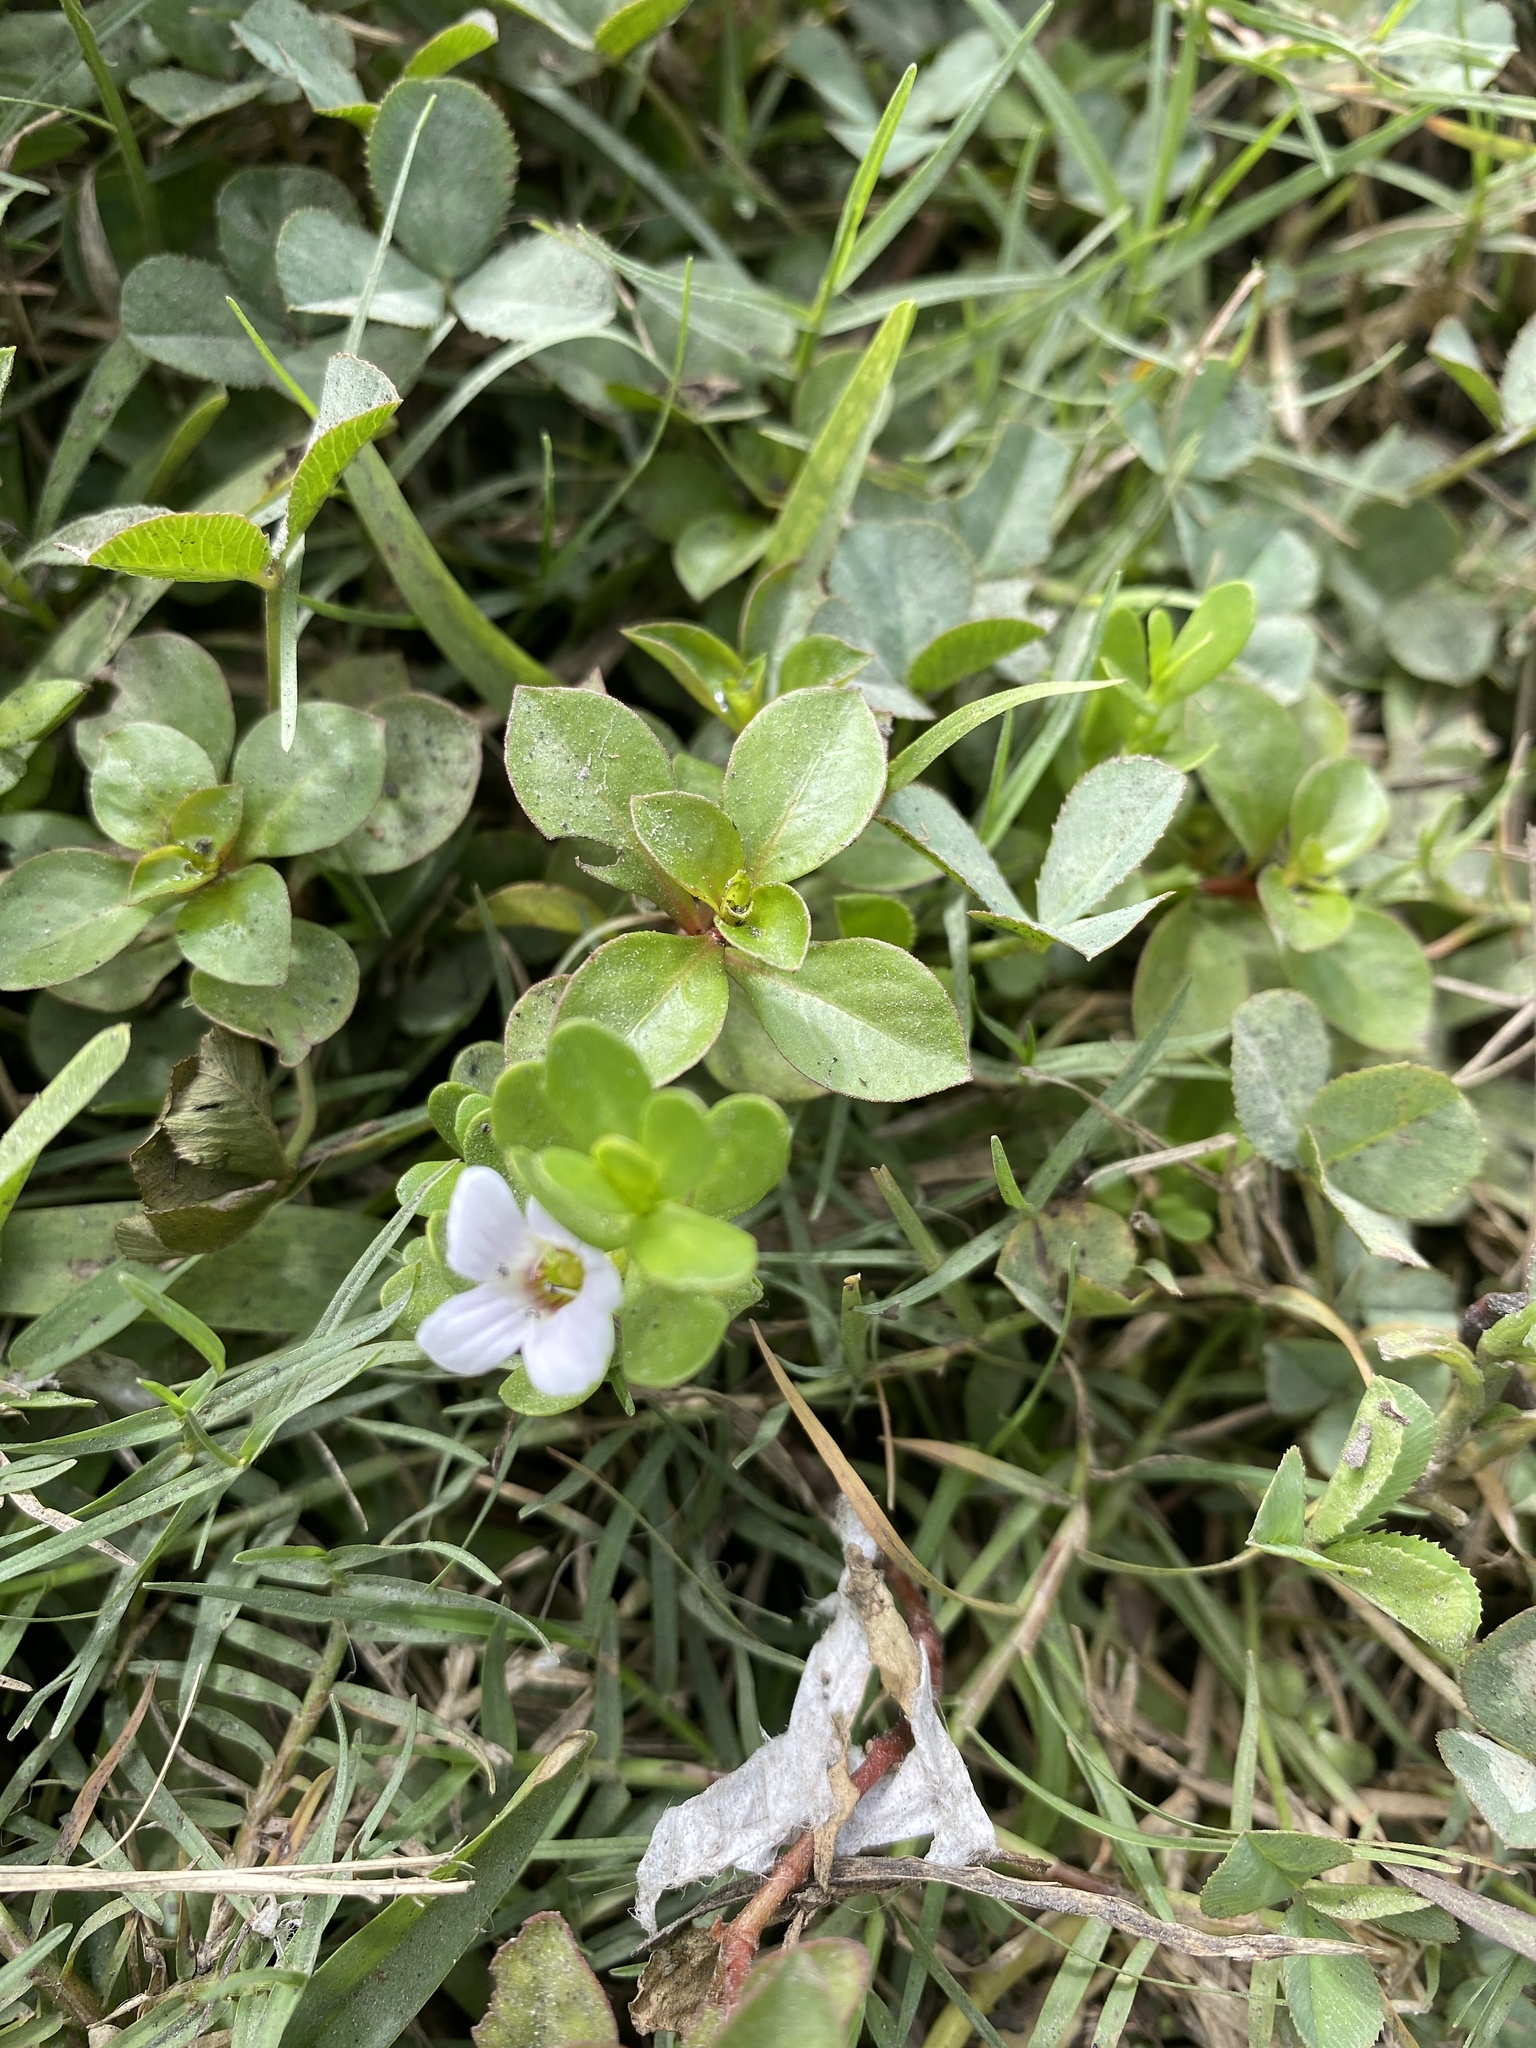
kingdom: Plantae
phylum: Tracheophyta
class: Magnoliopsida
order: Lamiales
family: Plantaginaceae
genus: Bacopa
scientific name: Bacopa monnieri
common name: Indian-pennywort
